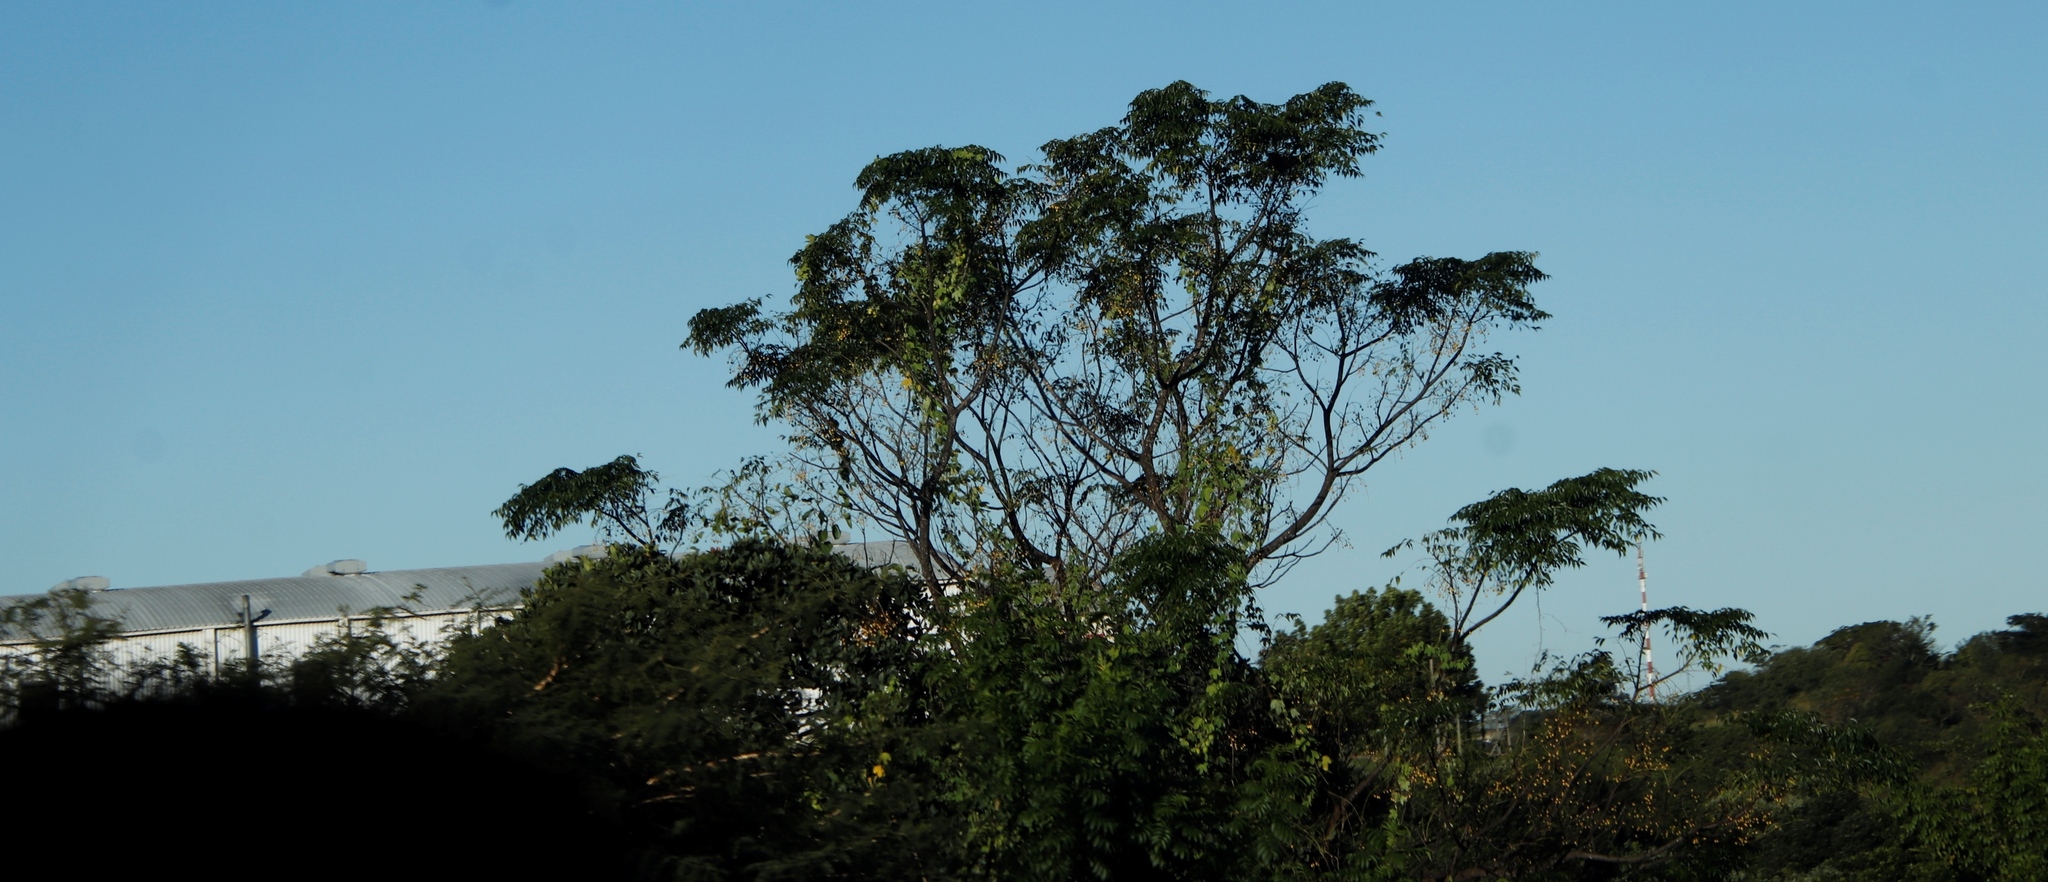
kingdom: Plantae
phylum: Tracheophyta
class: Magnoliopsida
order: Sapindales
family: Meliaceae
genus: Melia
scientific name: Melia azedarach
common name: Chinaberrytree
